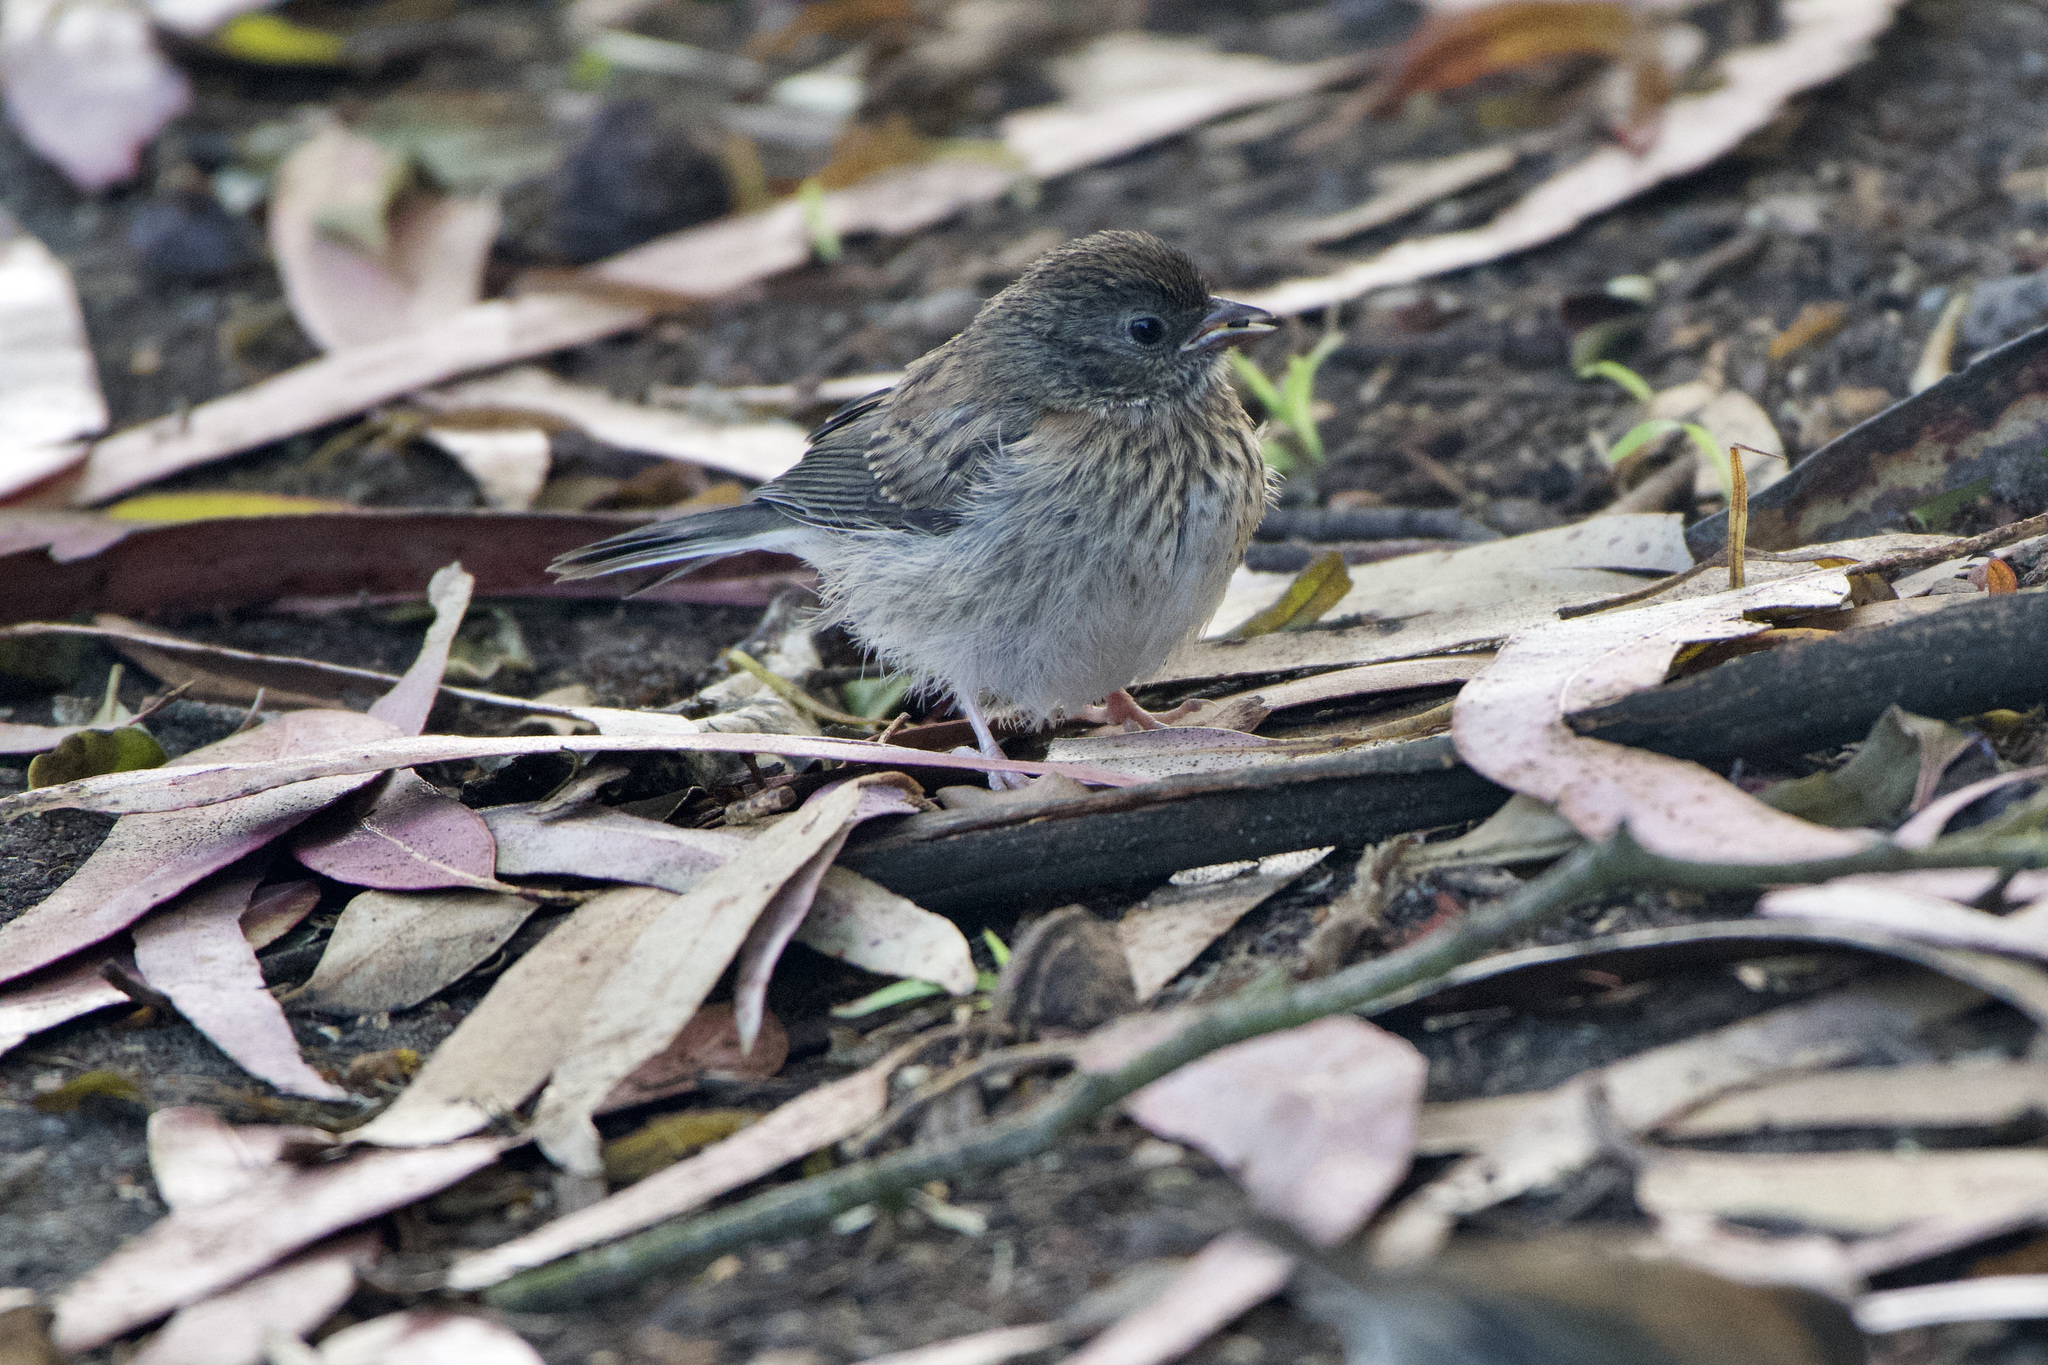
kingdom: Animalia
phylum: Chordata
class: Aves
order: Passeriformes
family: Passerellidae
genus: Junco
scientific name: Junco hyemalis
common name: Dark-eyed junco
